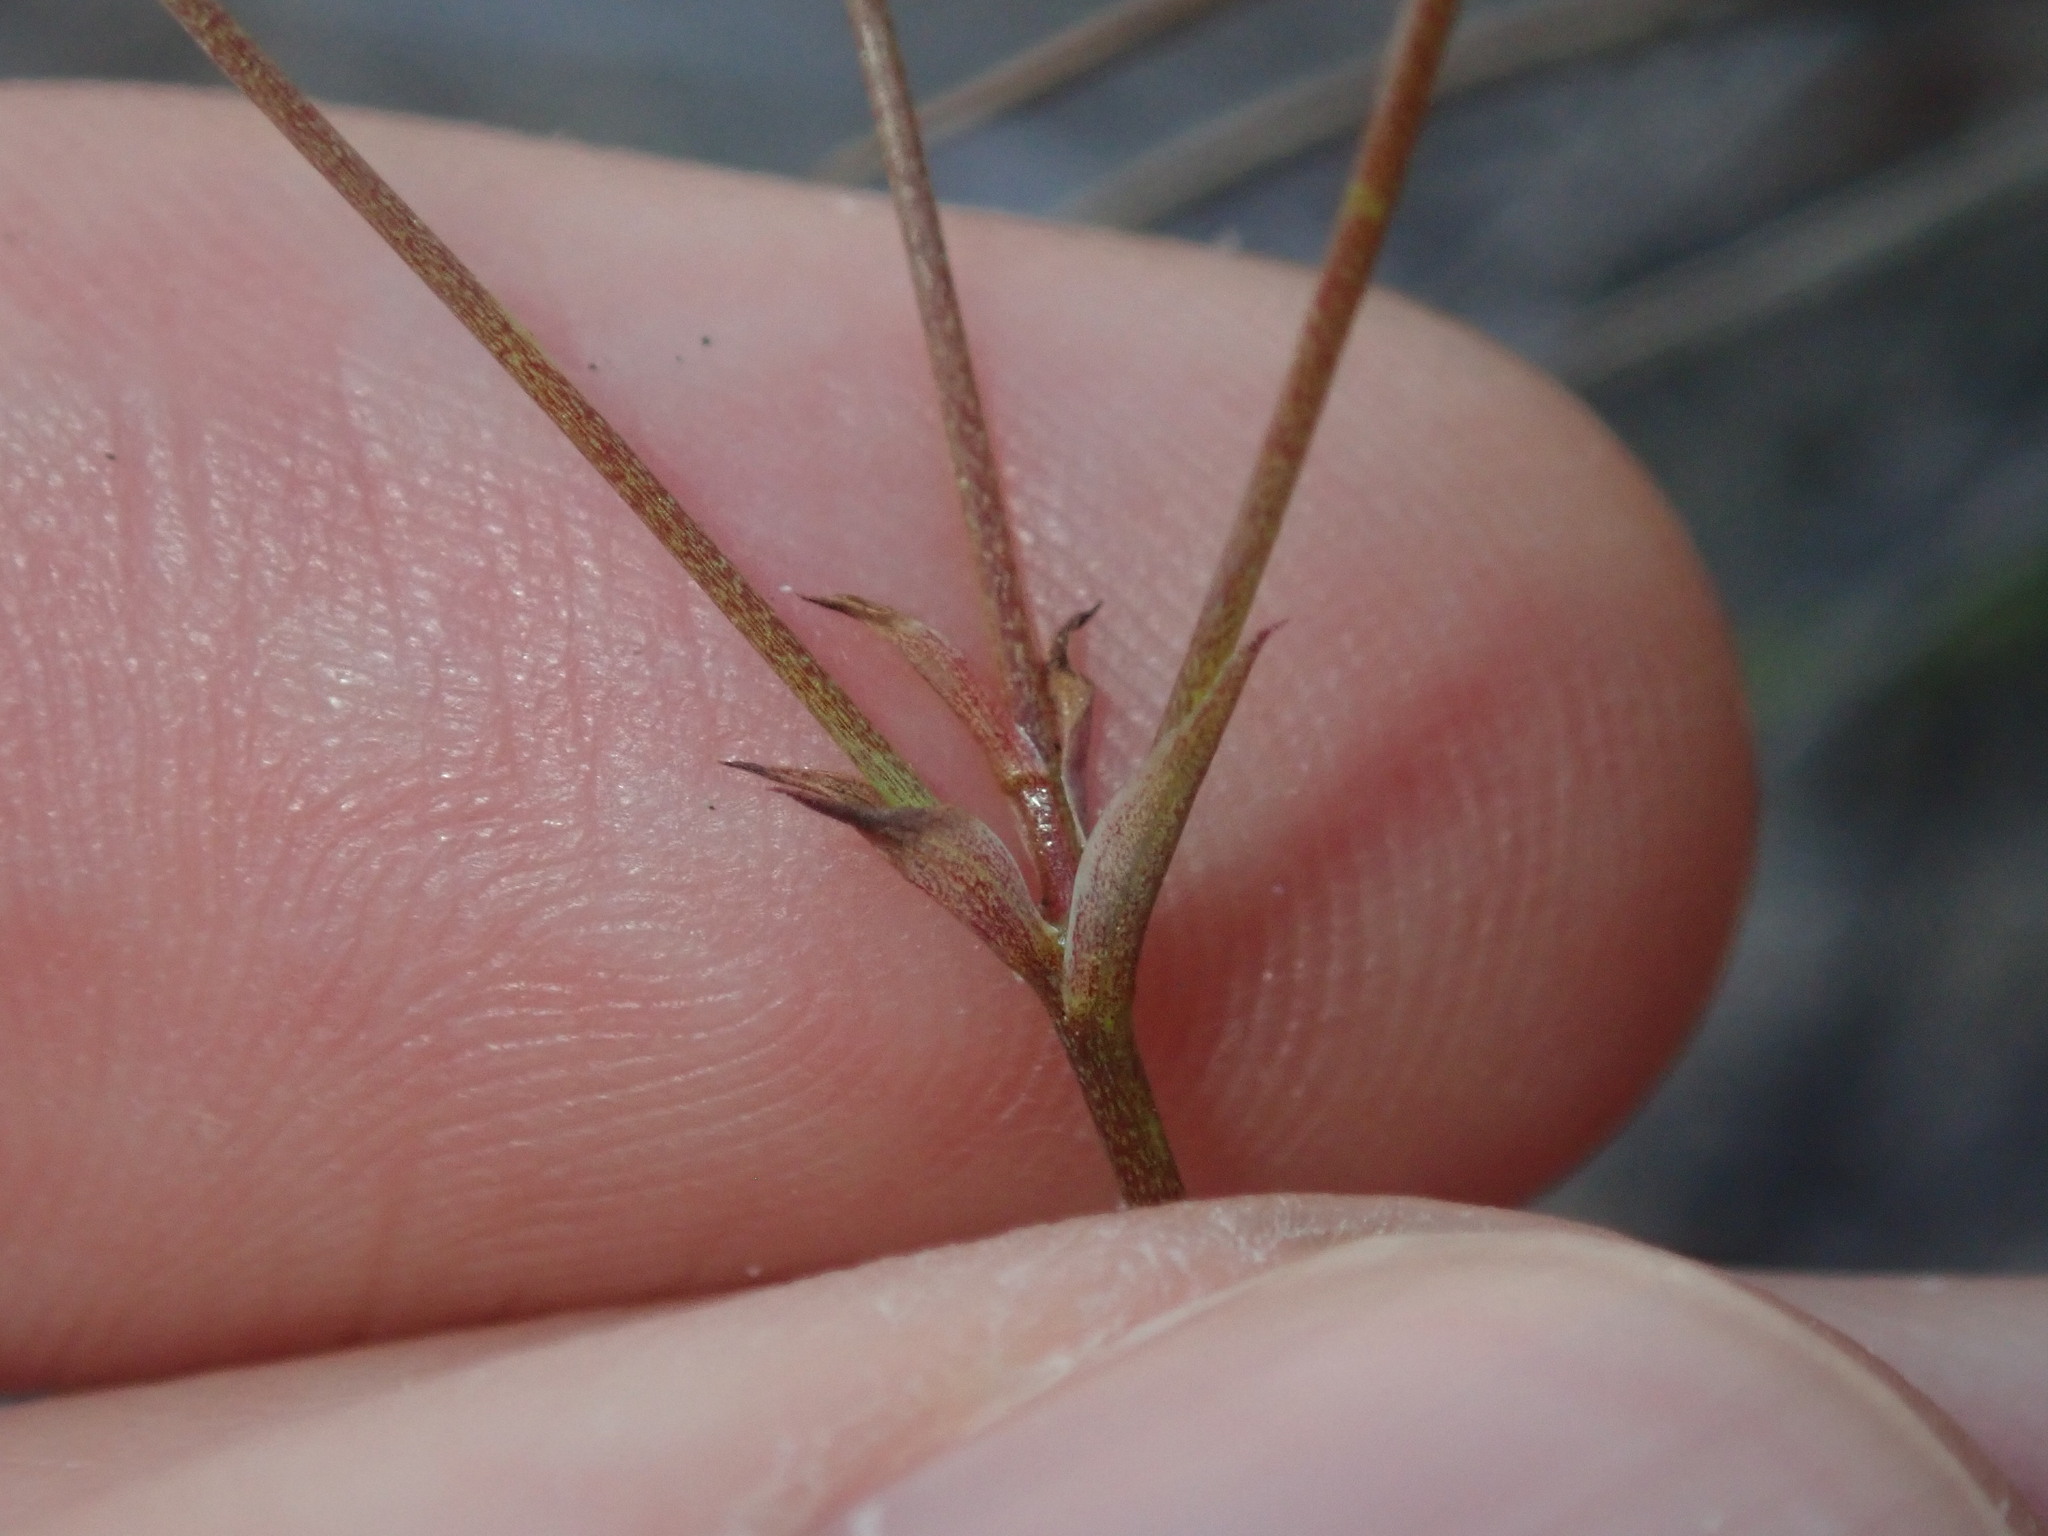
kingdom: Plantae
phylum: Tracheophyta
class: Liliopsida
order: Asparagales
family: Asphodelaceae
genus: Thelionema
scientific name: Thelionema umbellatum
